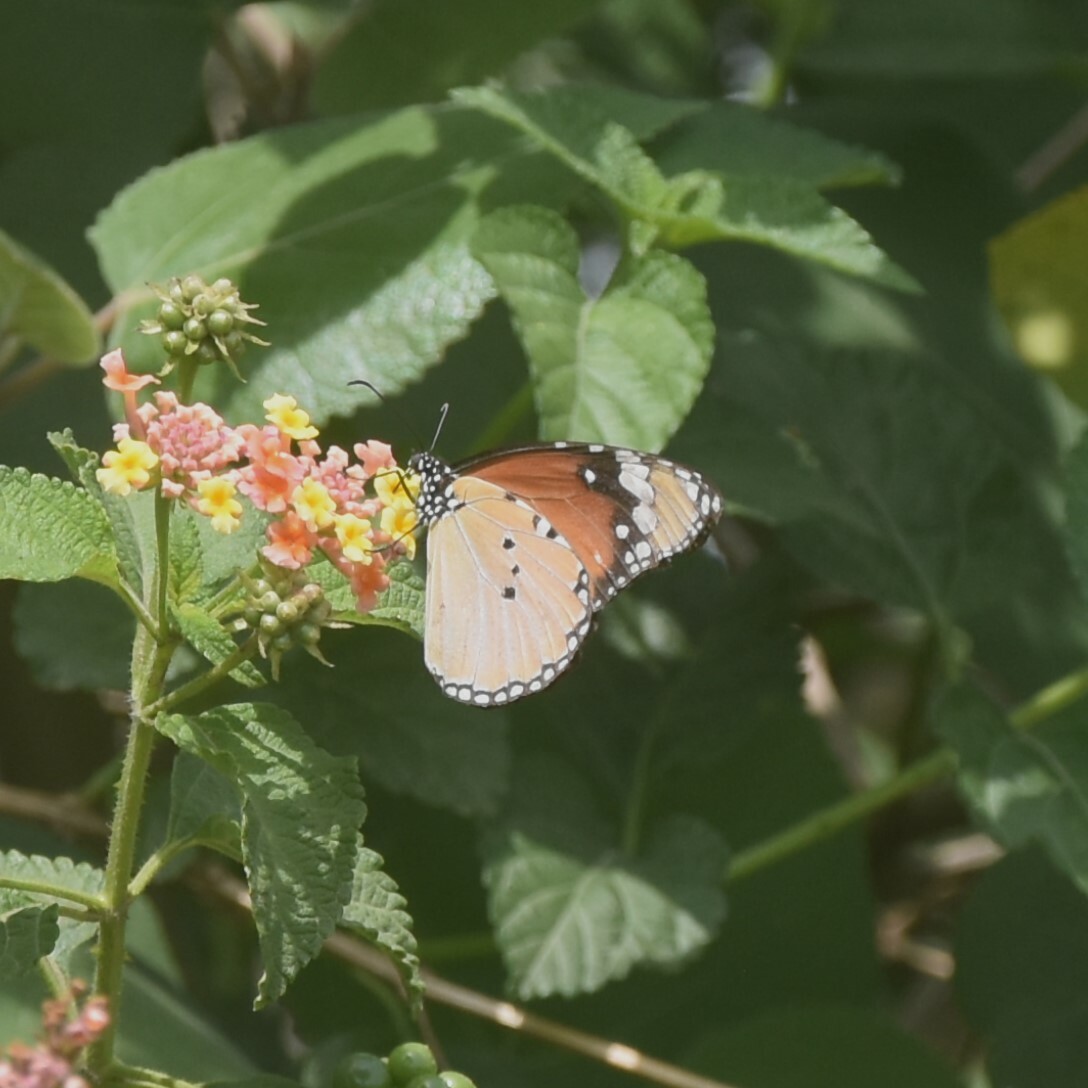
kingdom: Animalia
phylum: Arthropoda
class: Insecta
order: Lepidoptera
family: Nymphalidae
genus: Danaus
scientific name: Danaus chrysippus
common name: Plain tiger
